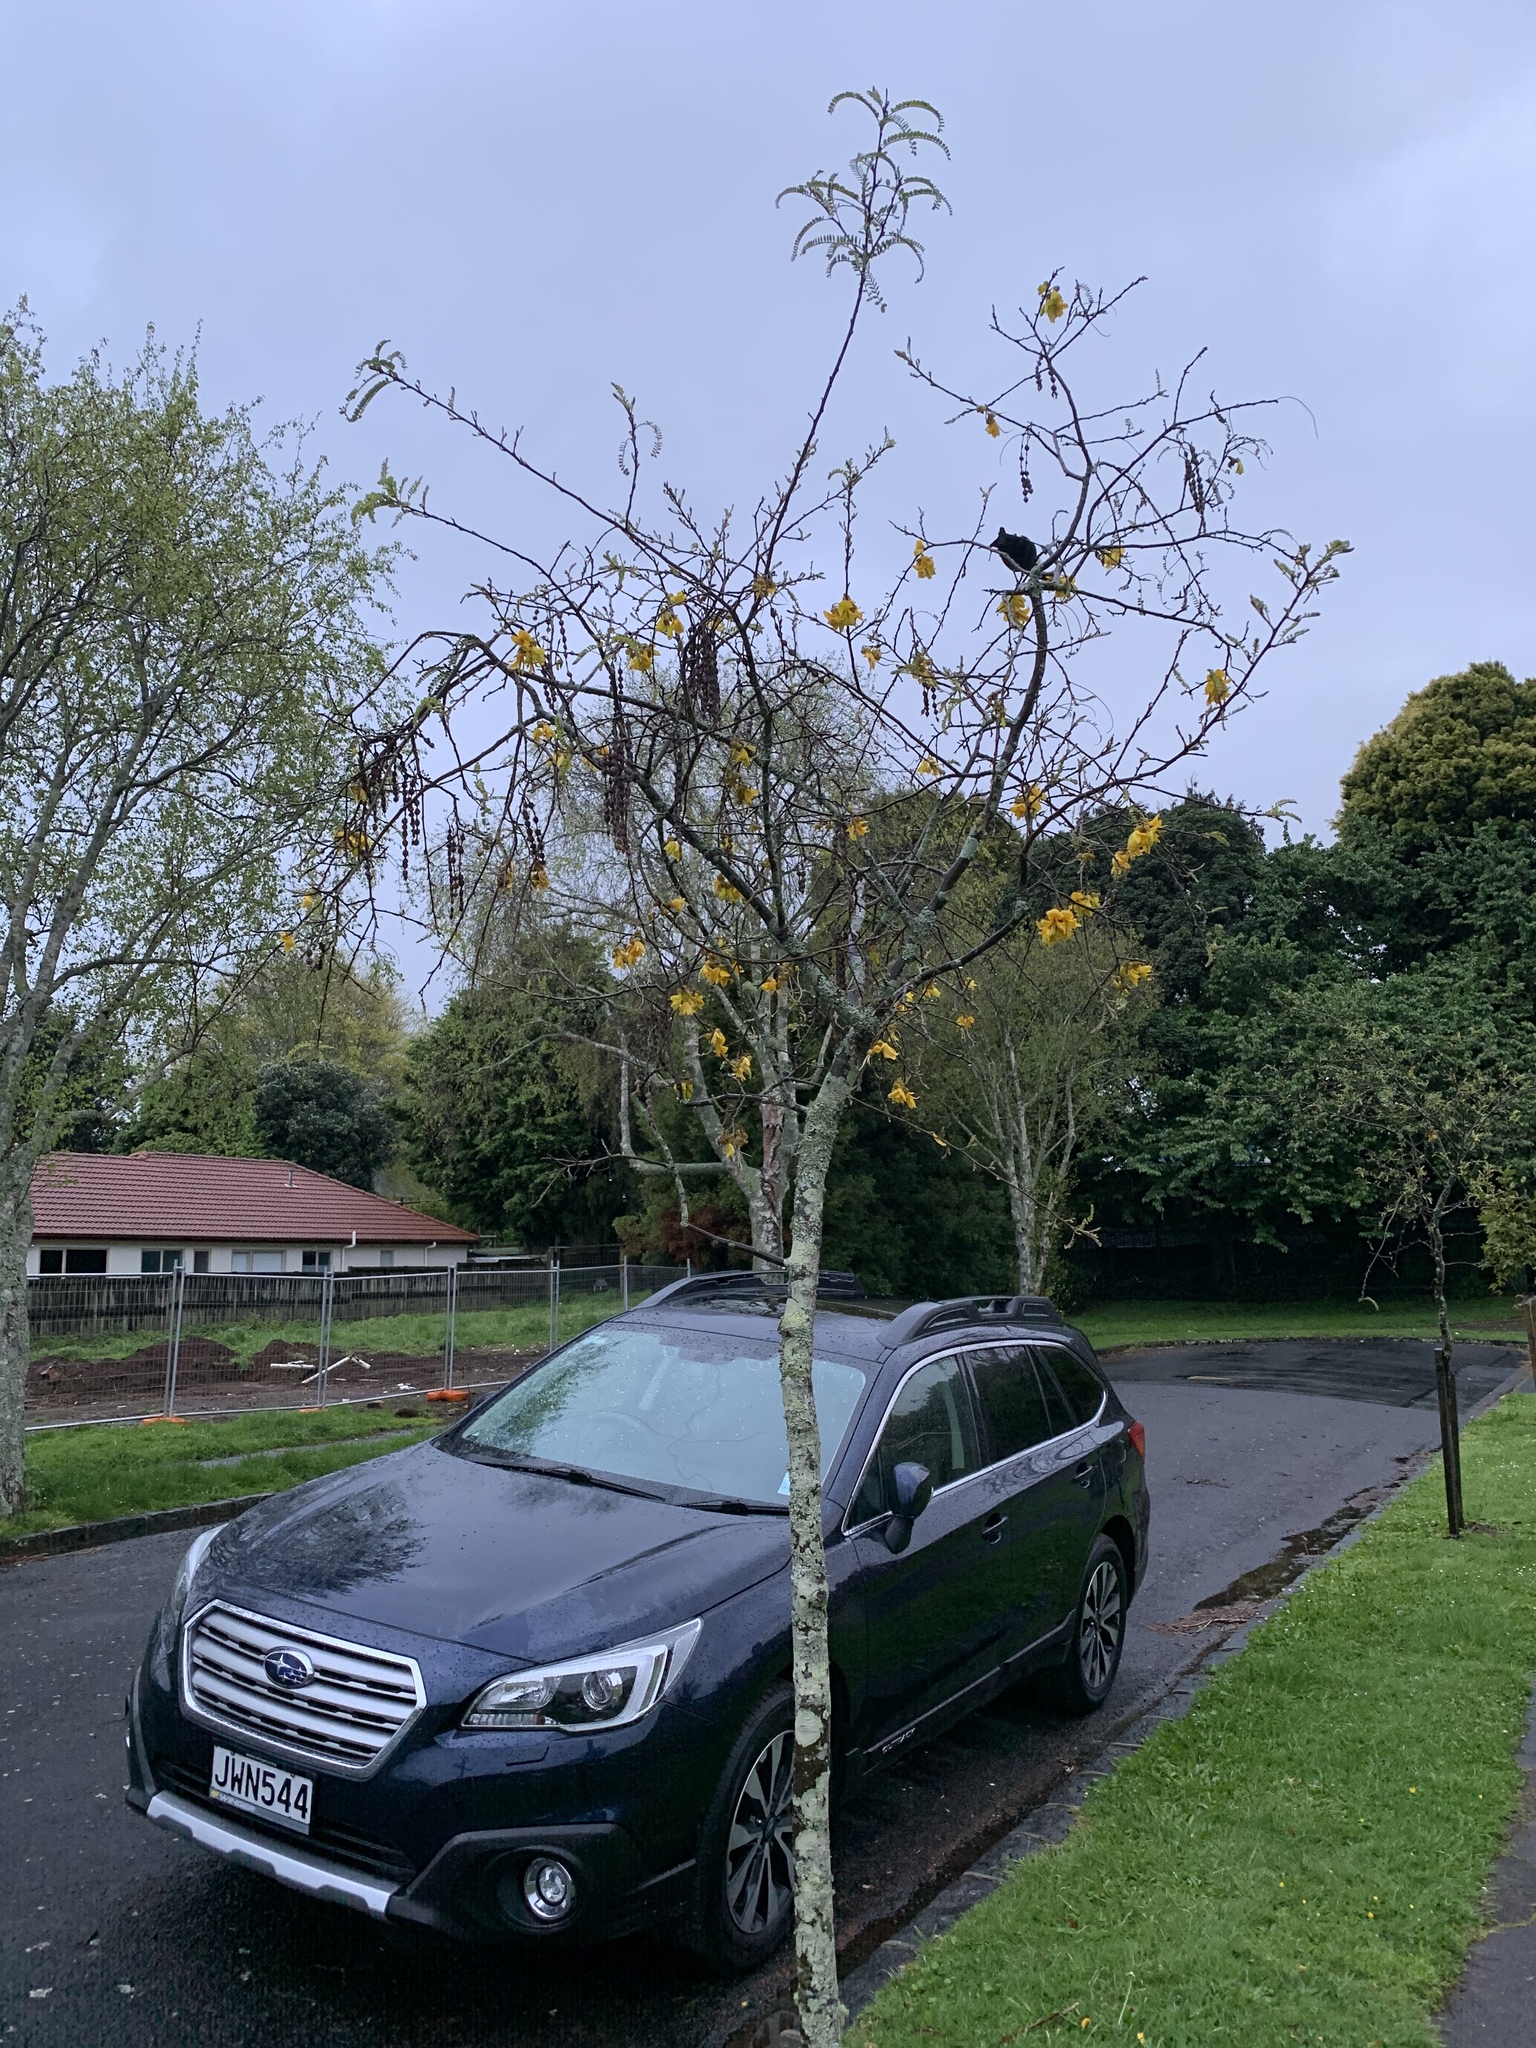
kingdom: Animalia
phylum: Chordata
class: Aves
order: Passeriformes
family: Meliphagidae
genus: Prosthemadera
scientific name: Prosthemadera novaeseelandiae
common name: Tui
